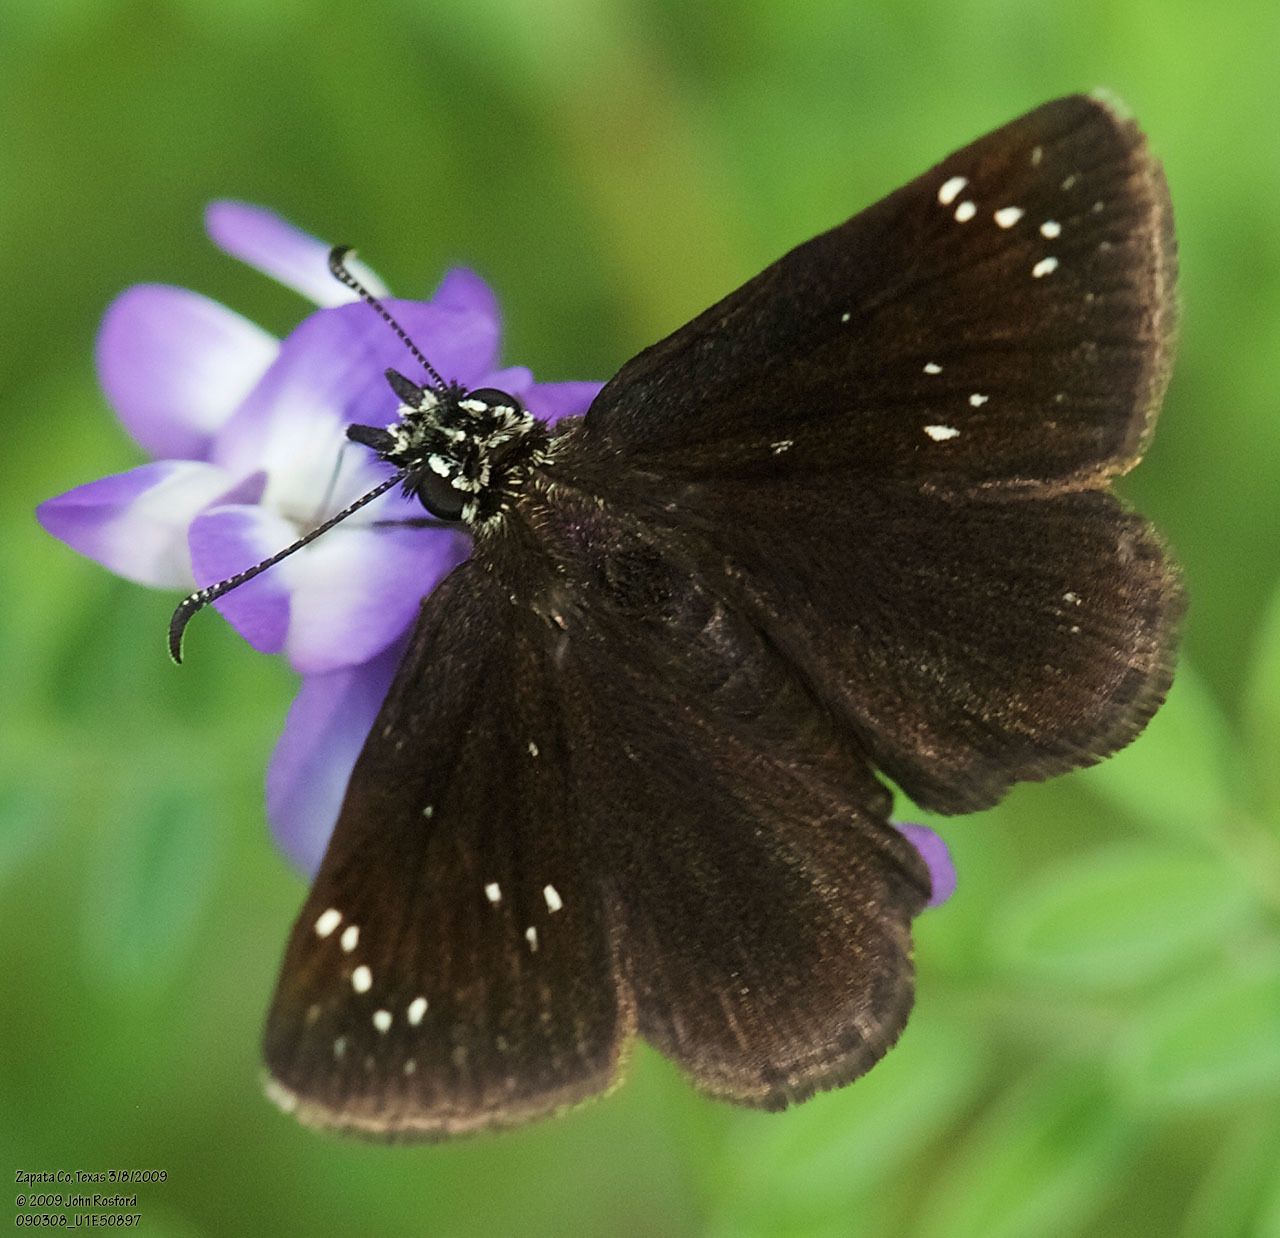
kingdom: Animalia
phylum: Arthropoda
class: Insecta
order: Lepidoptera
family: Hesperiidae
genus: Pholisora
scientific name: Pholisora catullus
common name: Common sootywing
